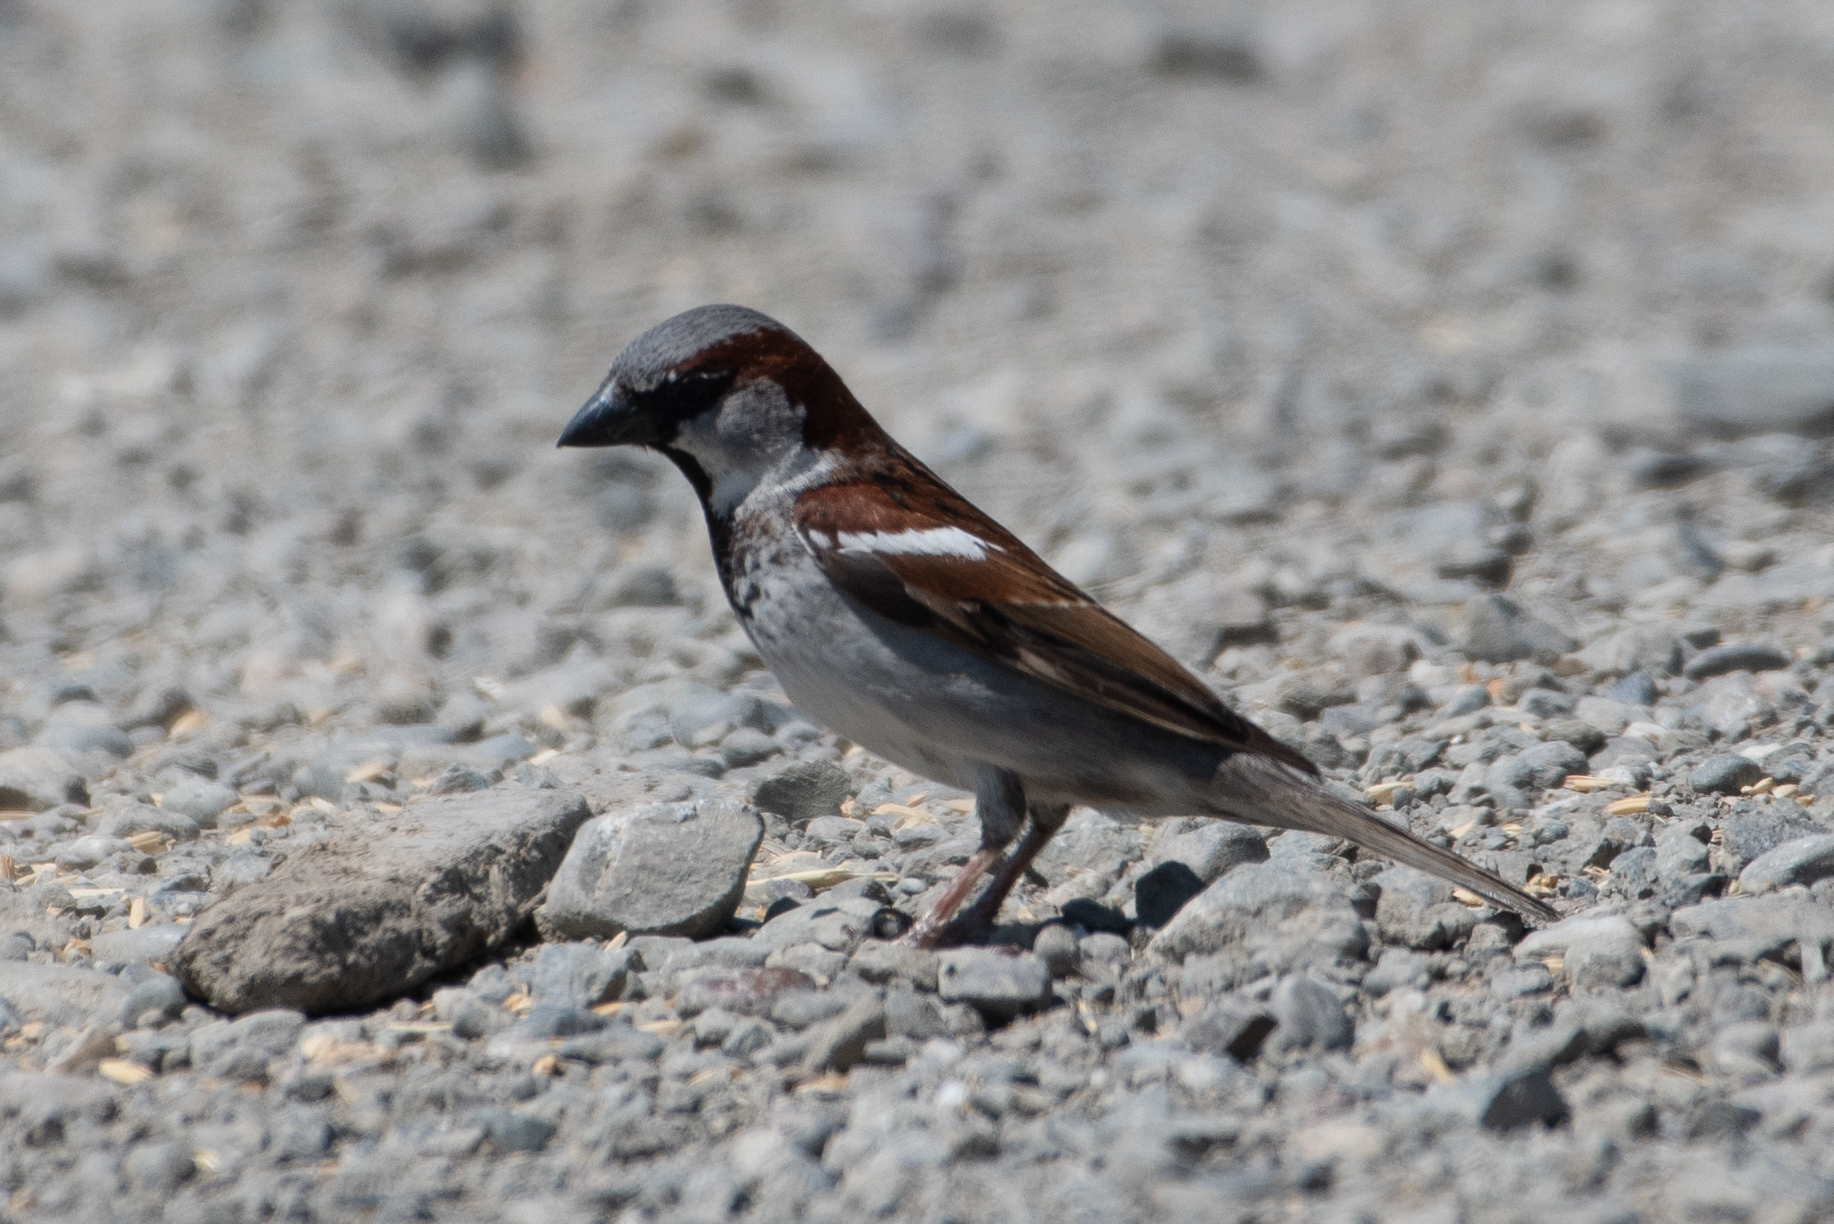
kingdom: Animalia
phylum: Chordata
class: Aves
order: Passeriformes
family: Passeridae
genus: Passer
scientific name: Passer domesticus
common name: House sparrow
